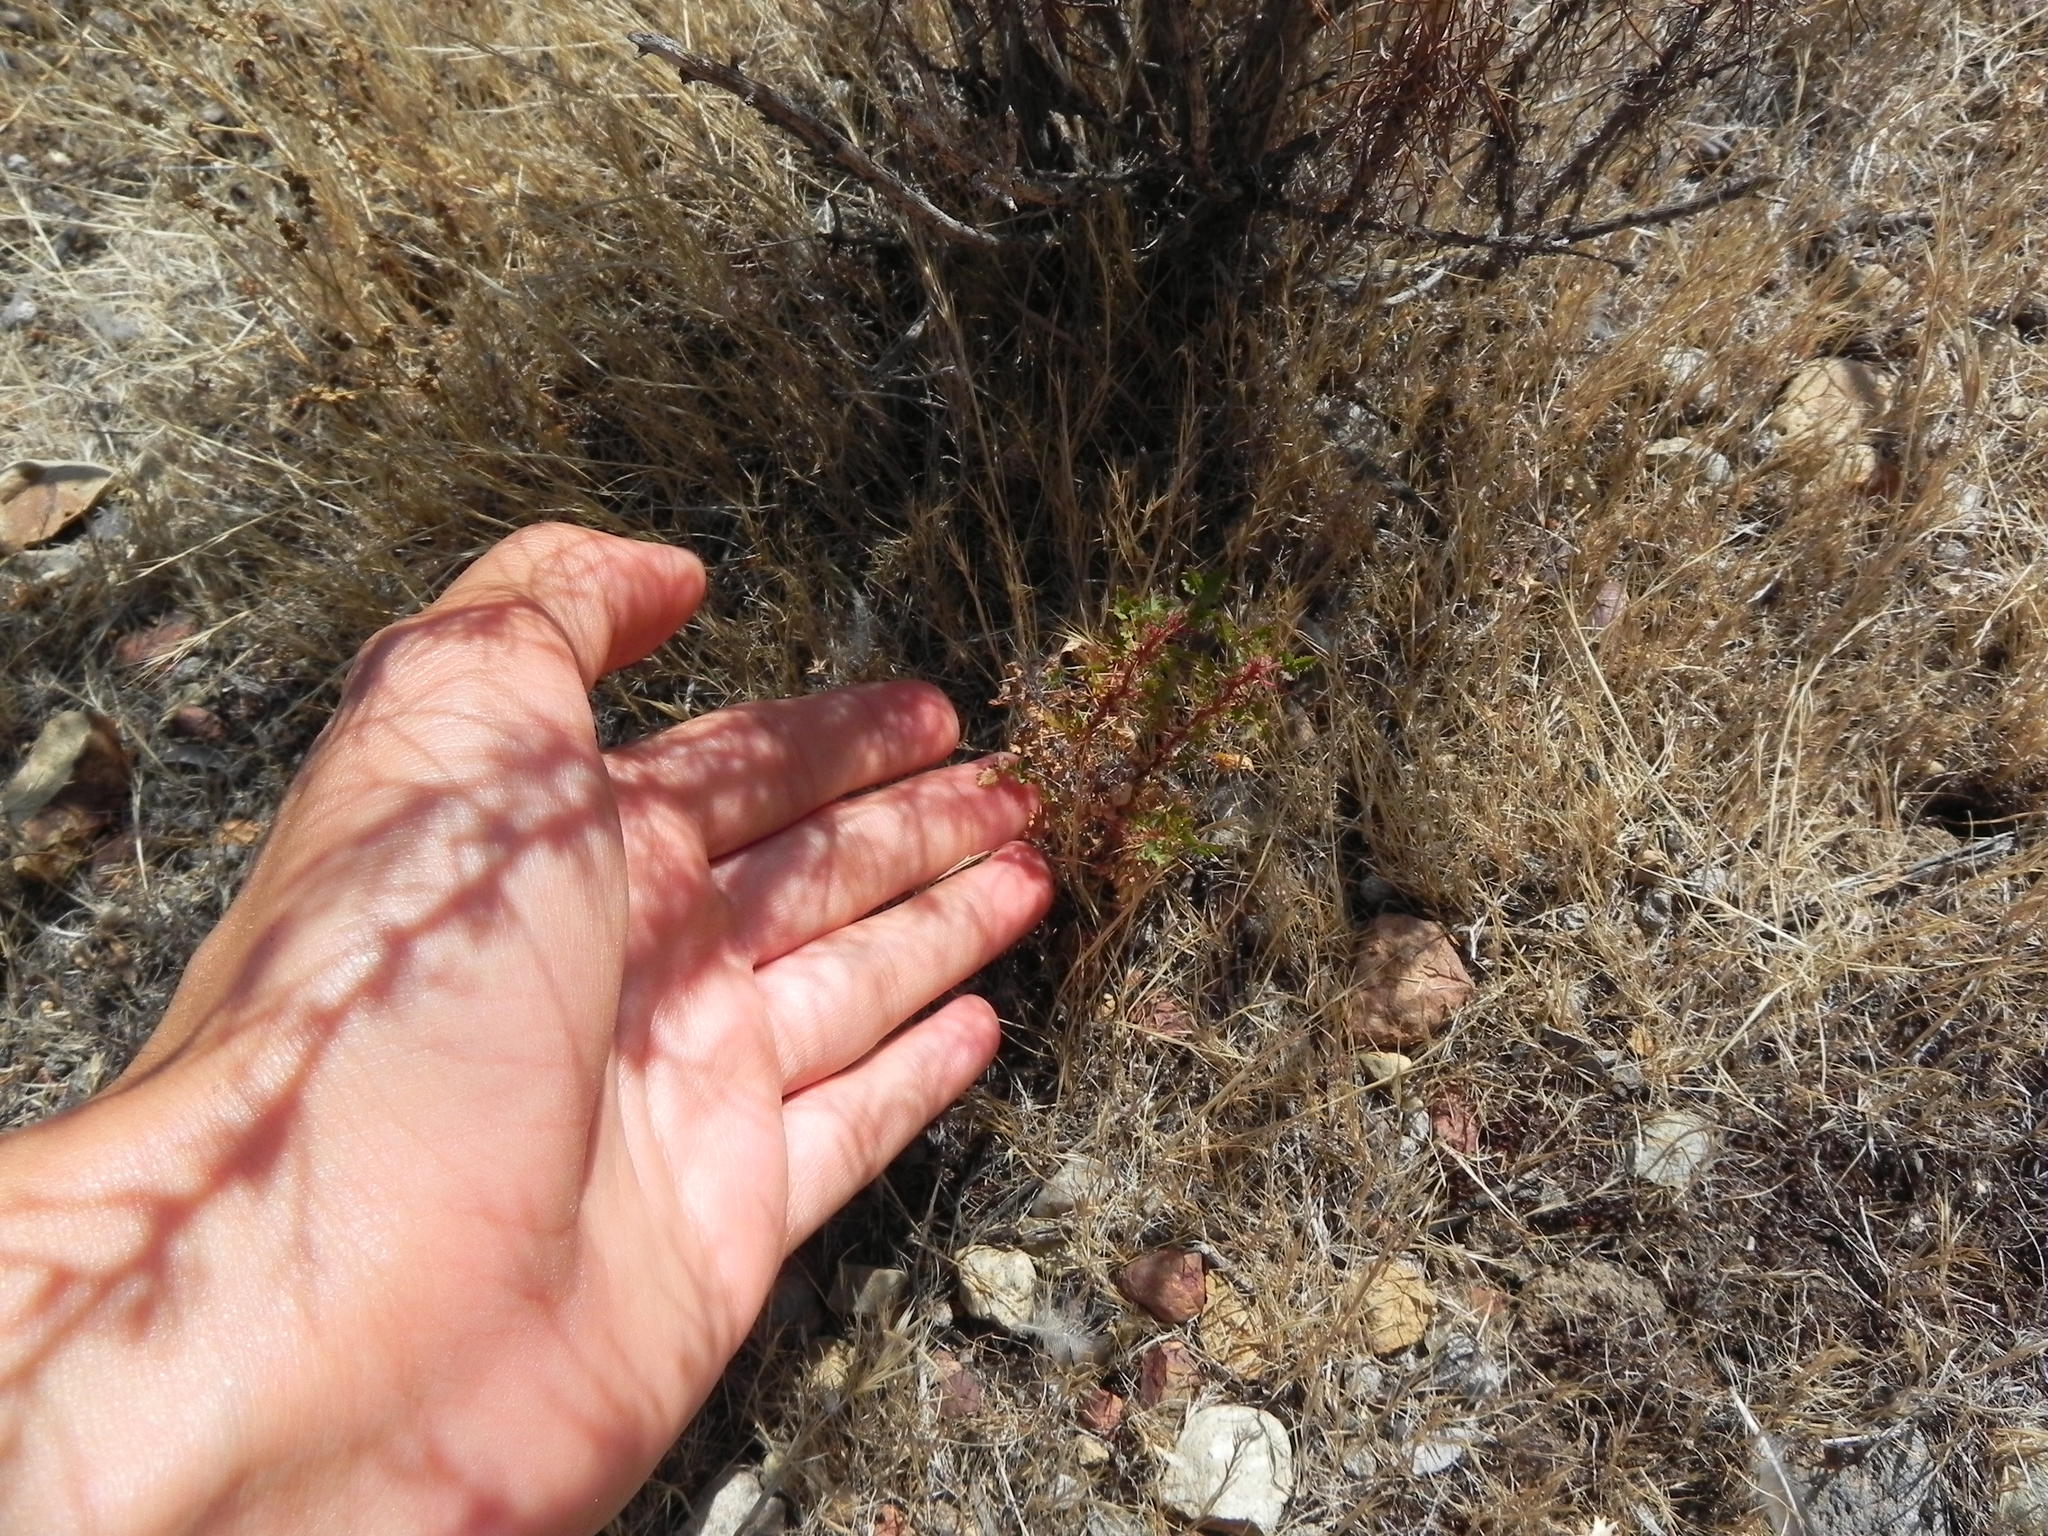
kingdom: Plantae
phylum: Tracheophyta
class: Magnoliopsida
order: Rosales
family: Rosaceae
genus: Rosa
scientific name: Rosa minutifolia
